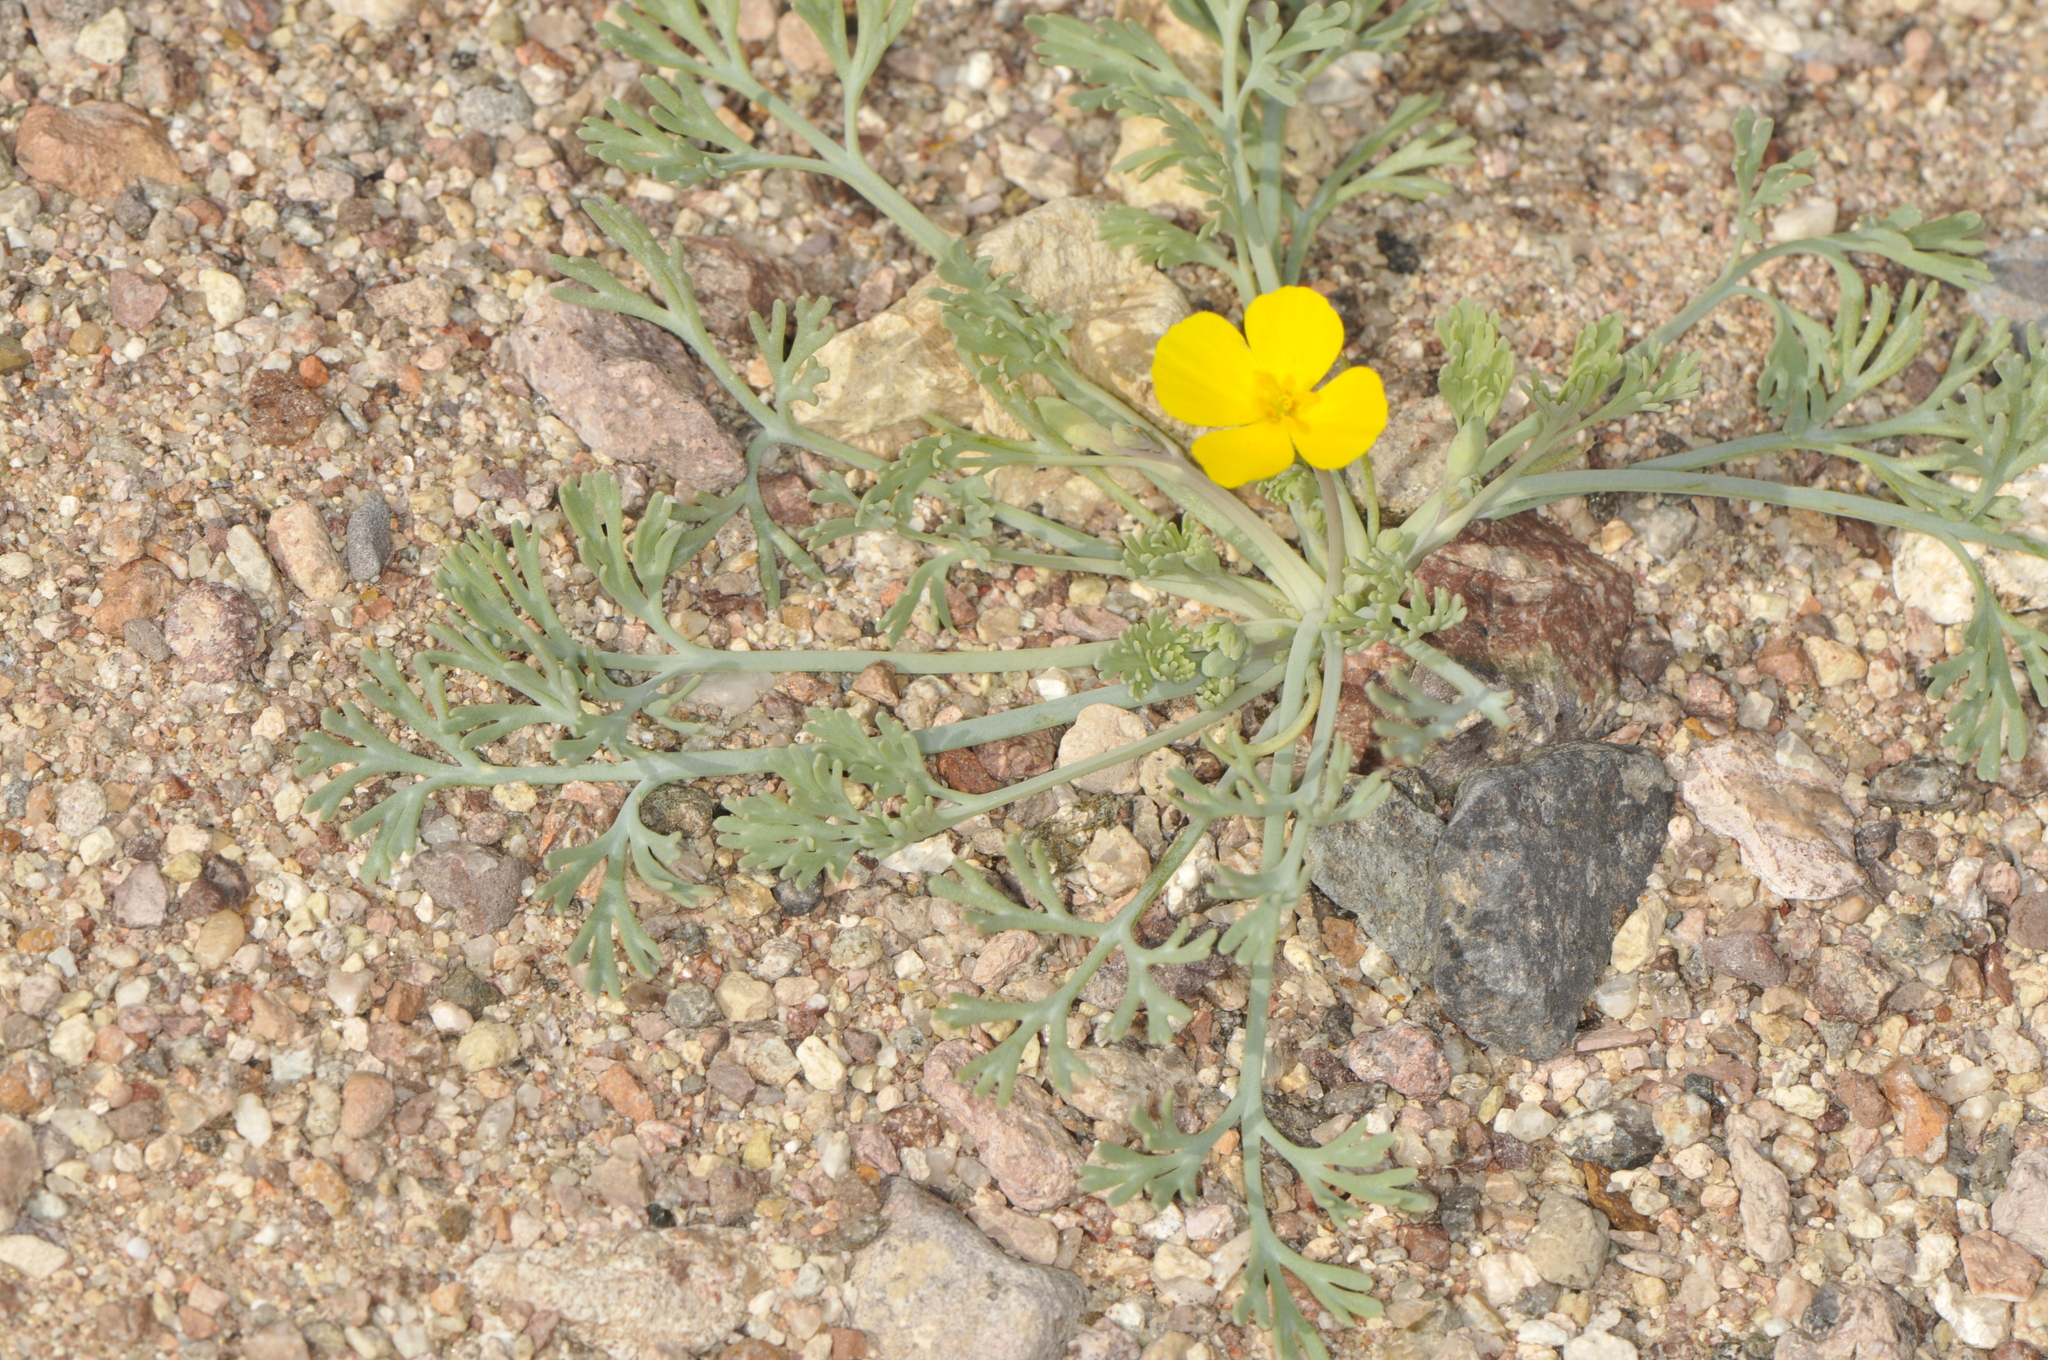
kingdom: Plantae
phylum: Tracheophyta
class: Magnoliopsida
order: Ranunculales
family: Papaveraceae
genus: Eschscholzia
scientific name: Eschscholzia minutiflora
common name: Small-flower california-poppy
